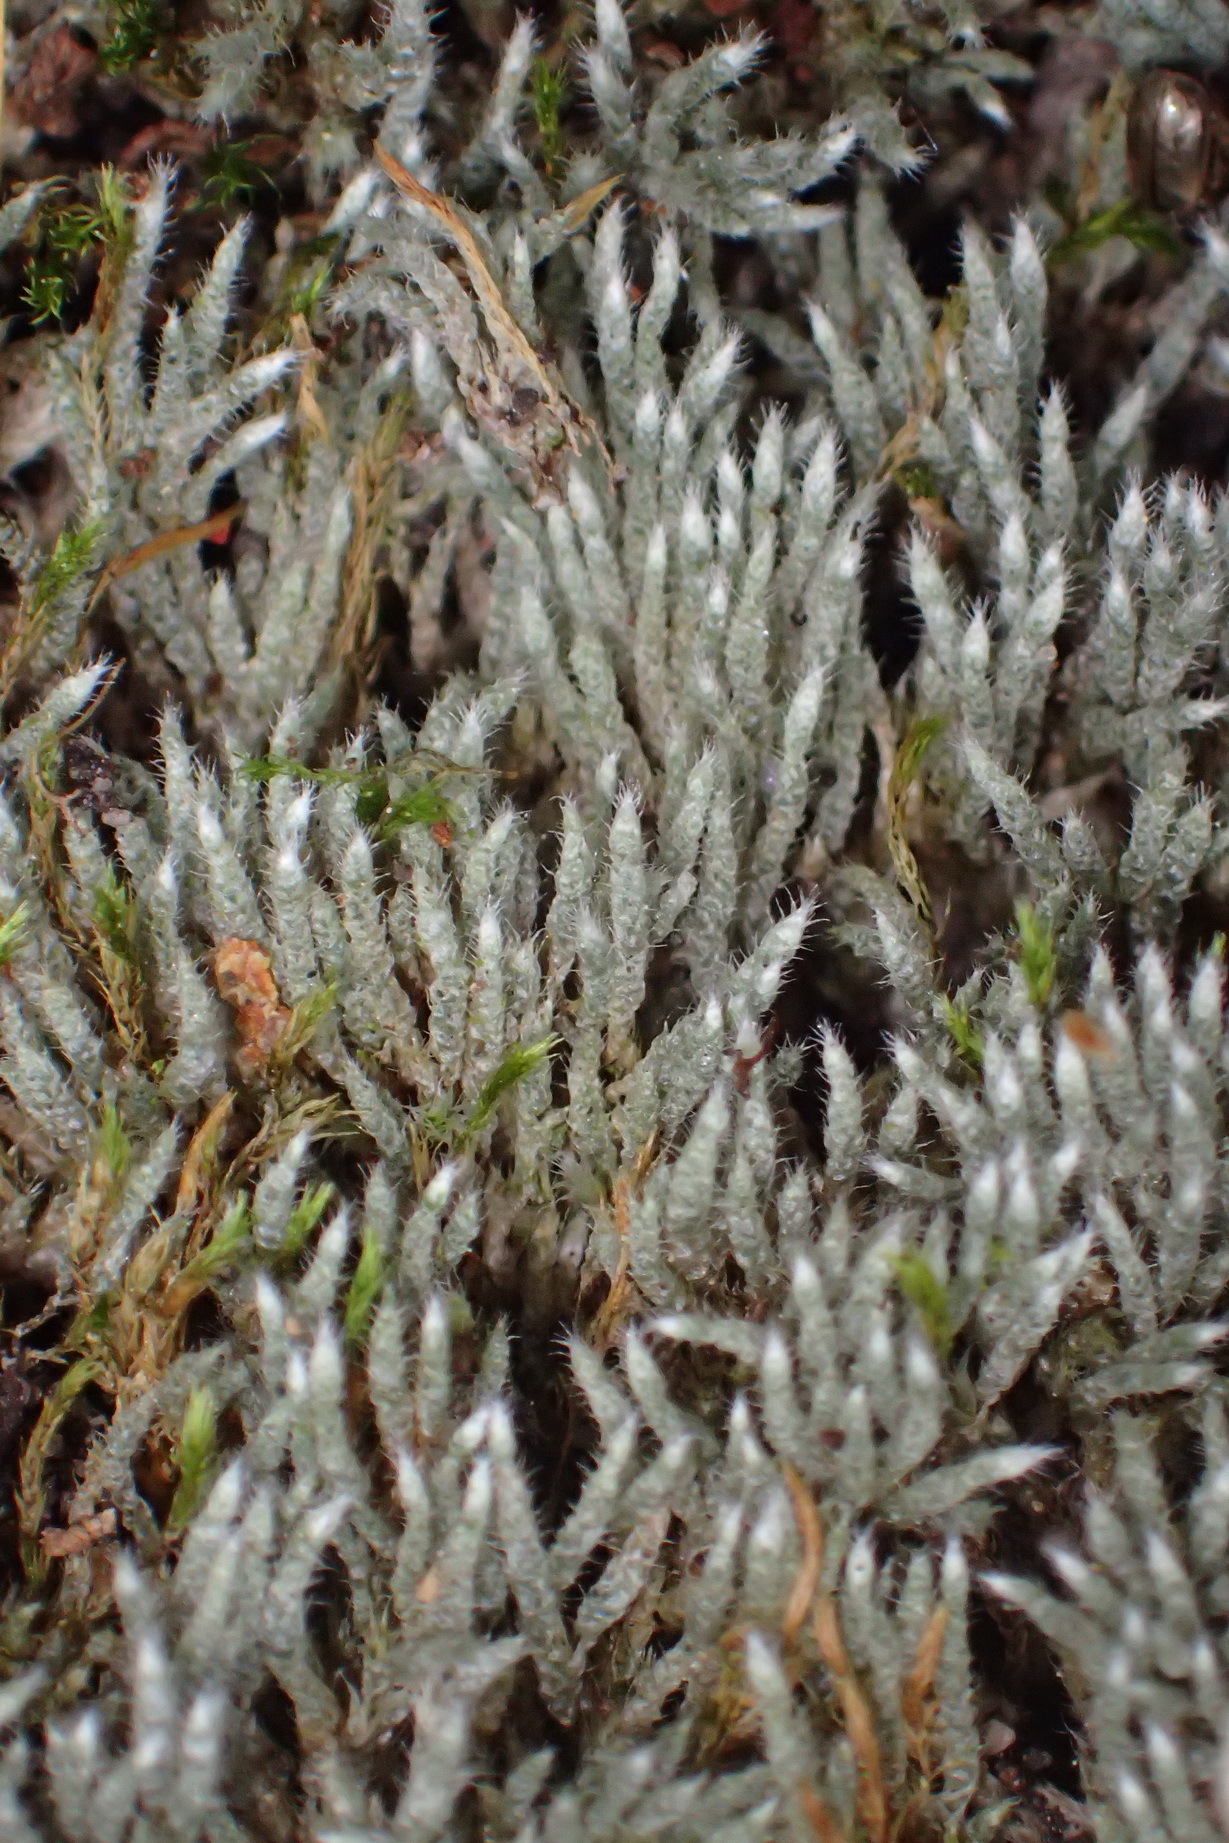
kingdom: Plantae
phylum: Bryophyta
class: Bryopsida
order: Bryales
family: Bryaceae
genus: Bryum
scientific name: Bryum argenteum
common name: Silver-moss
